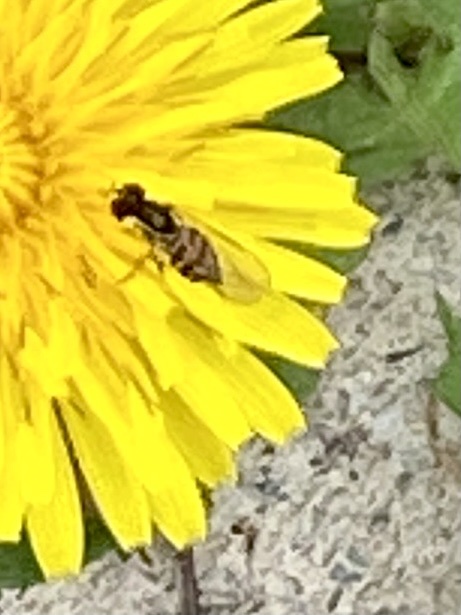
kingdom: Animalia
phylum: Arthropoda
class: Insecta
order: Diptera
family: Syrphidae
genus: Toxomerus
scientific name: Toxomerus geminatus
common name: Eastern calligrapher
